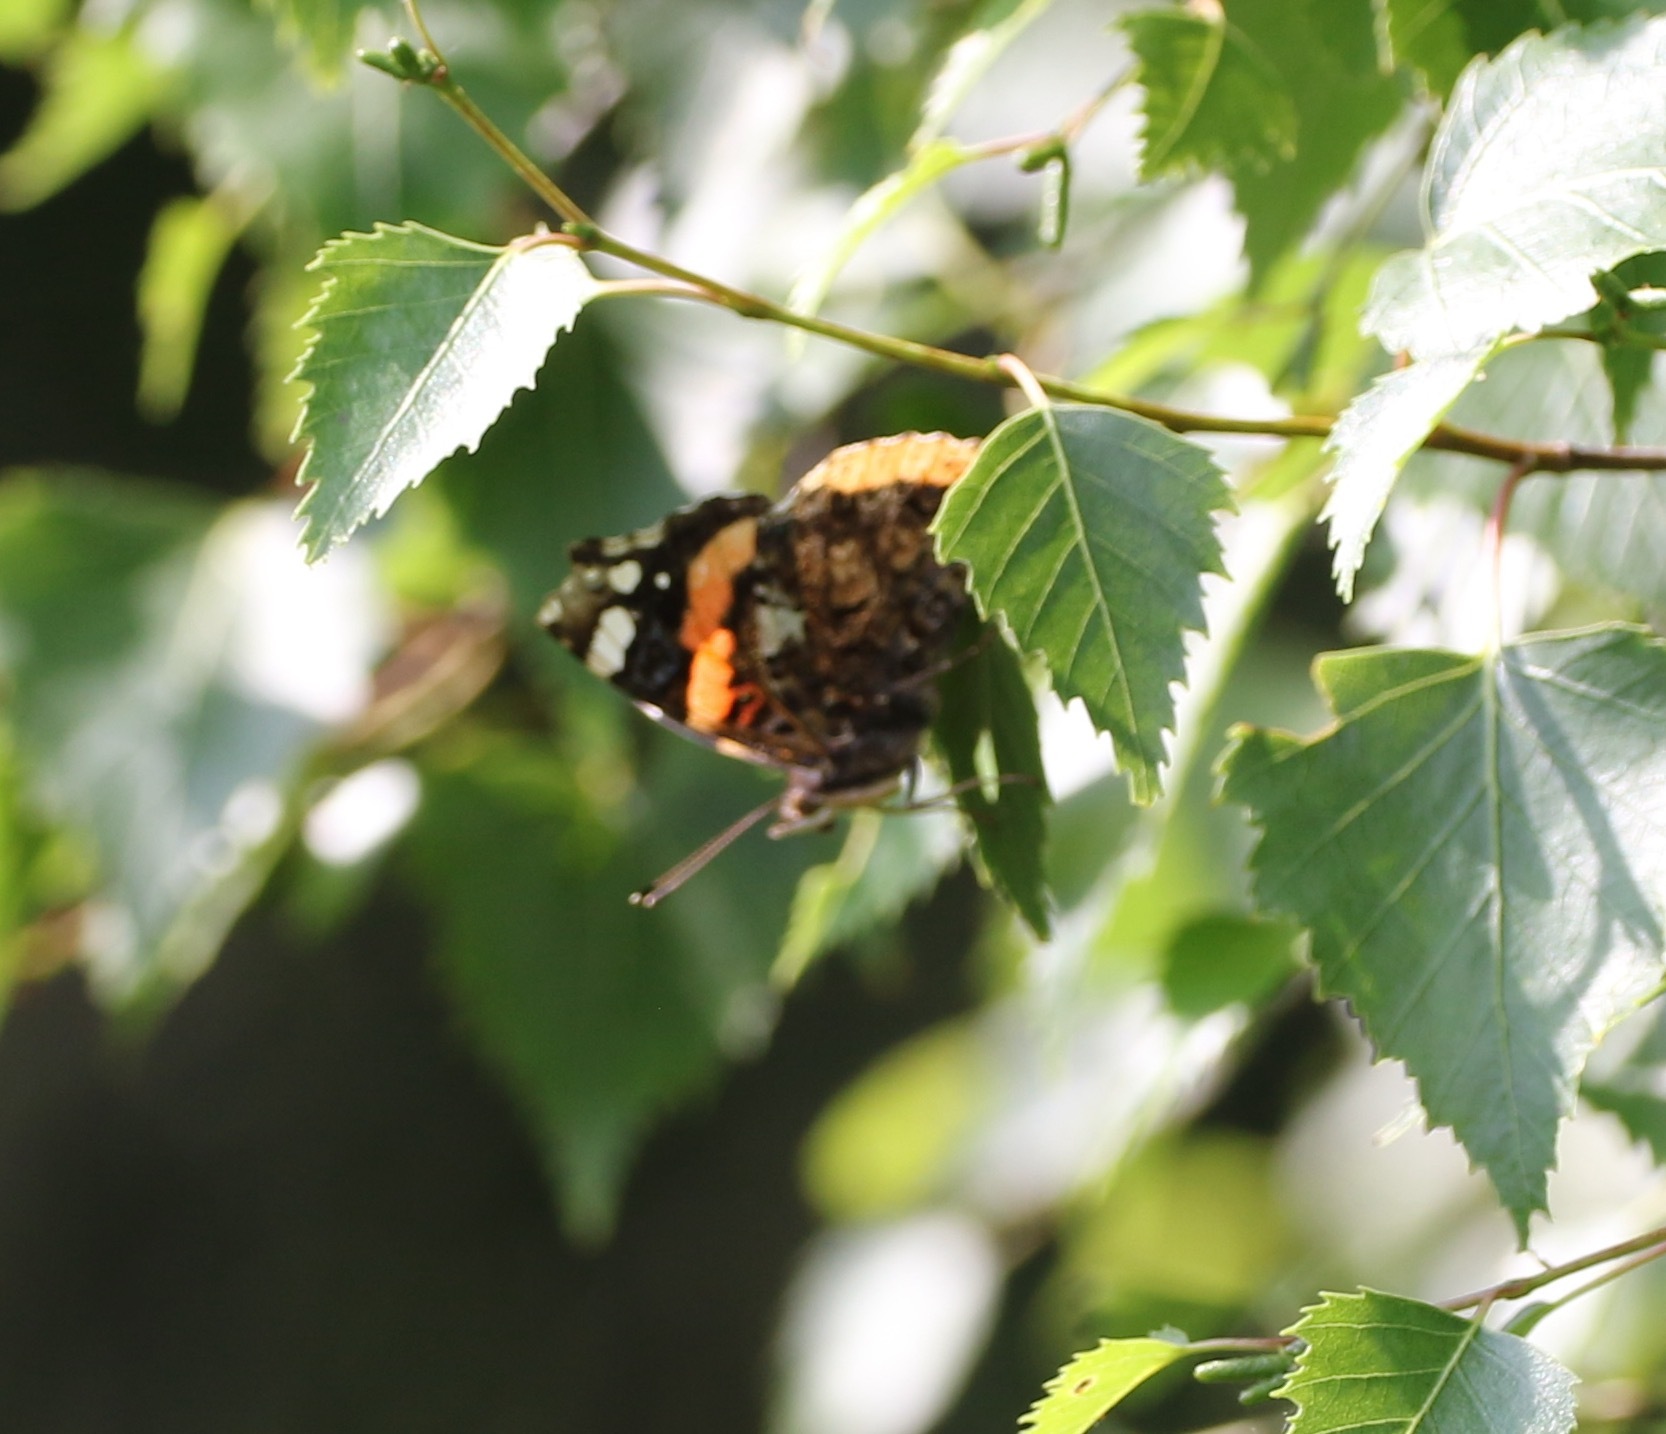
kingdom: Animalia
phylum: Arthropoda
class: Insecta
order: Lepidoptera
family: Nymphalidae
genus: Vanessa
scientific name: Vanessa atalanta
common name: Red admiral
